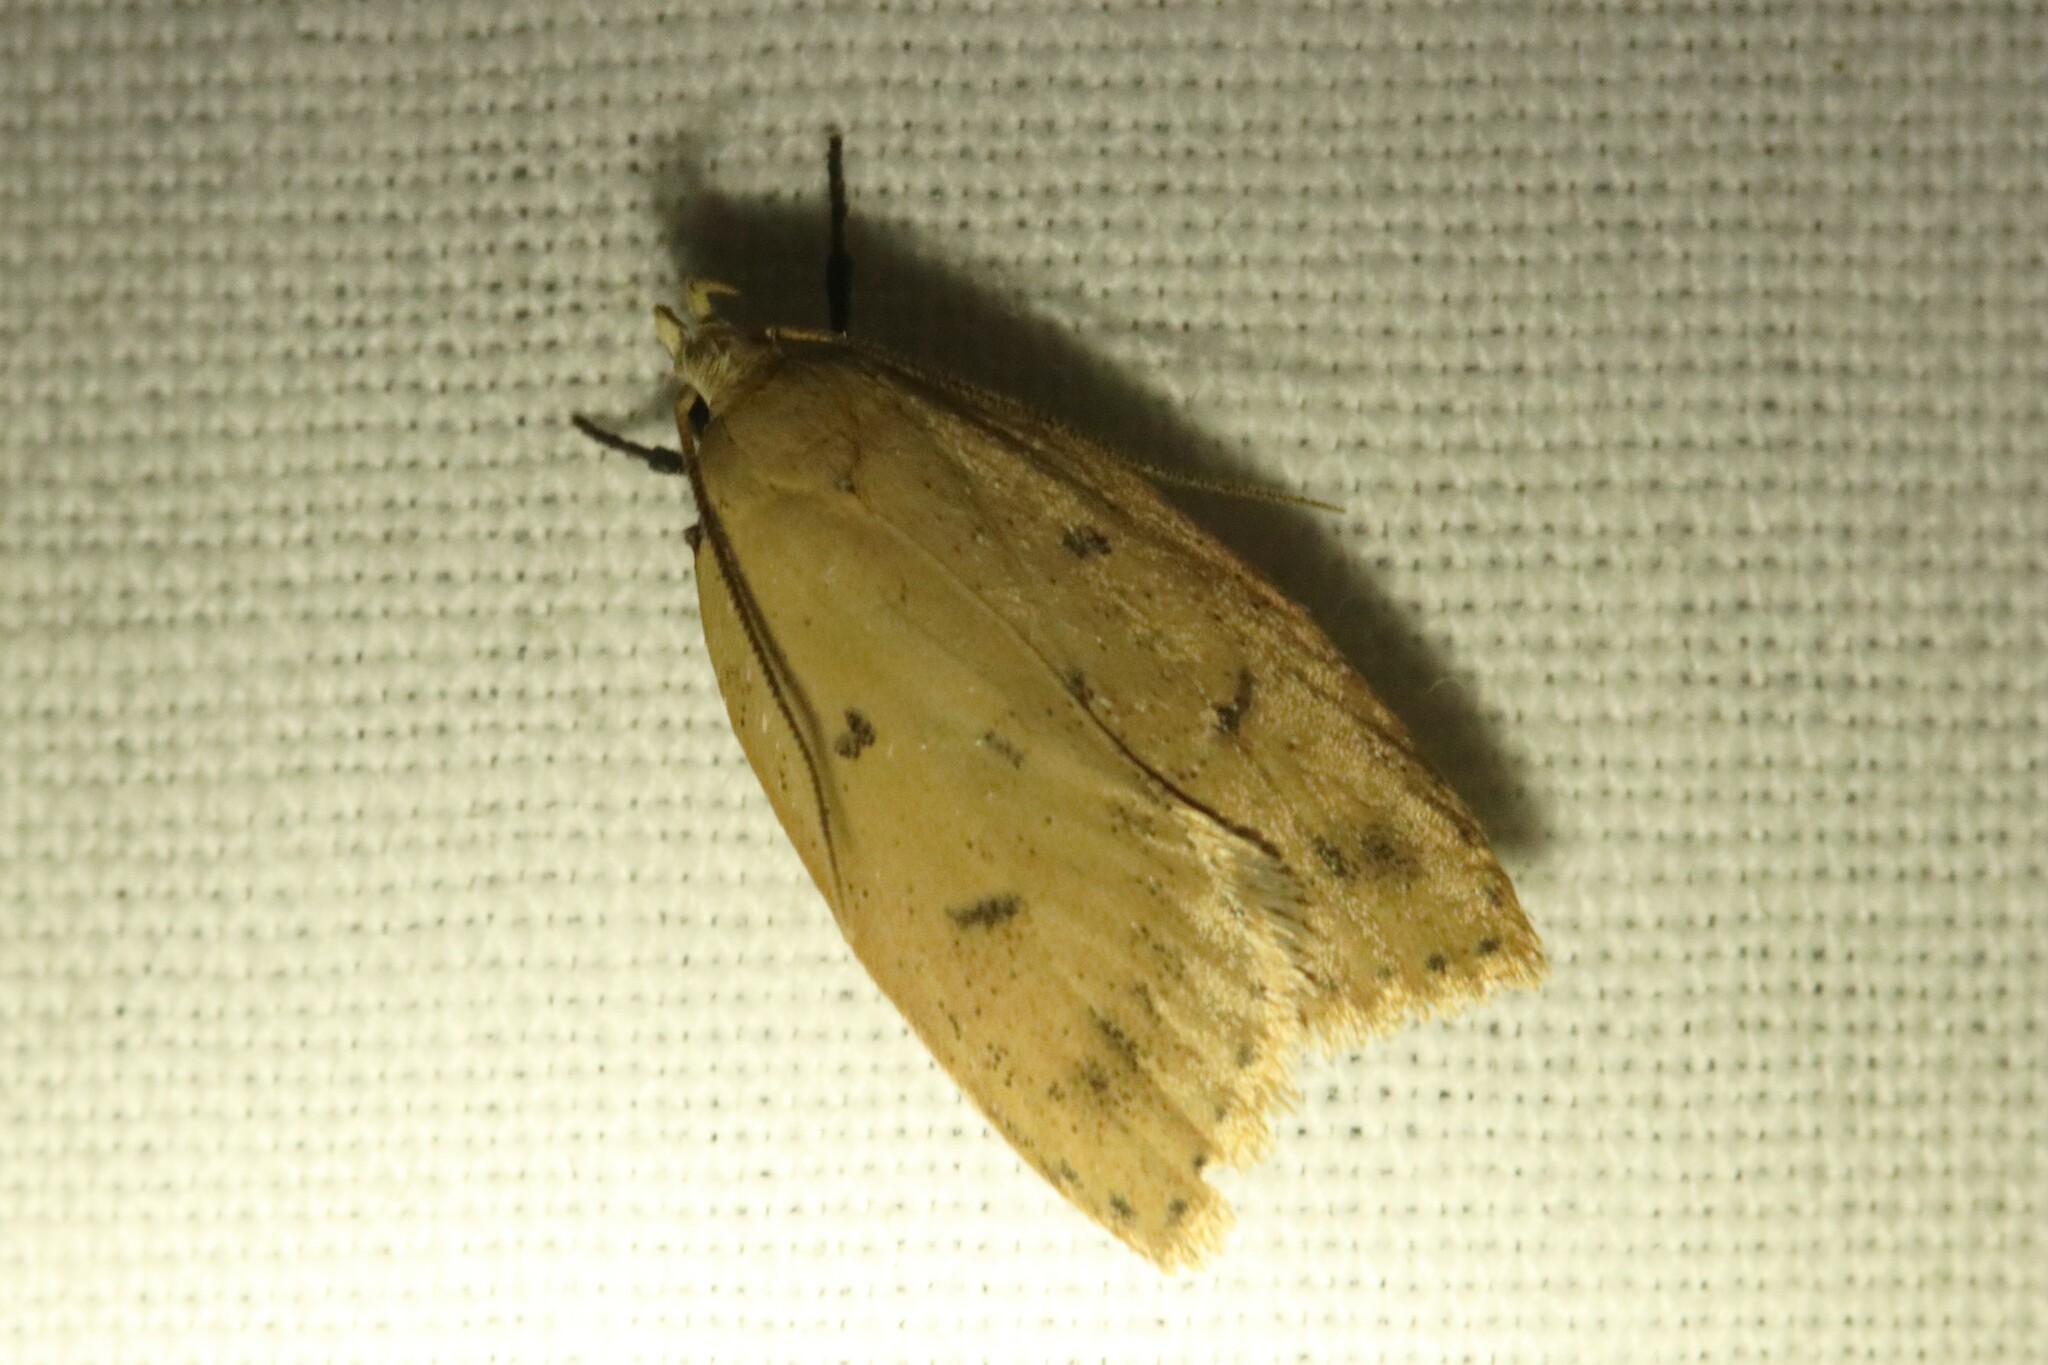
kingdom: Animalia
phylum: Arthropoda
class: Insecta
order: Lepidoptera
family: Peleopodidae
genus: Machimia
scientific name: Machimia tentoriferella
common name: Gold-striped leaftier moth
